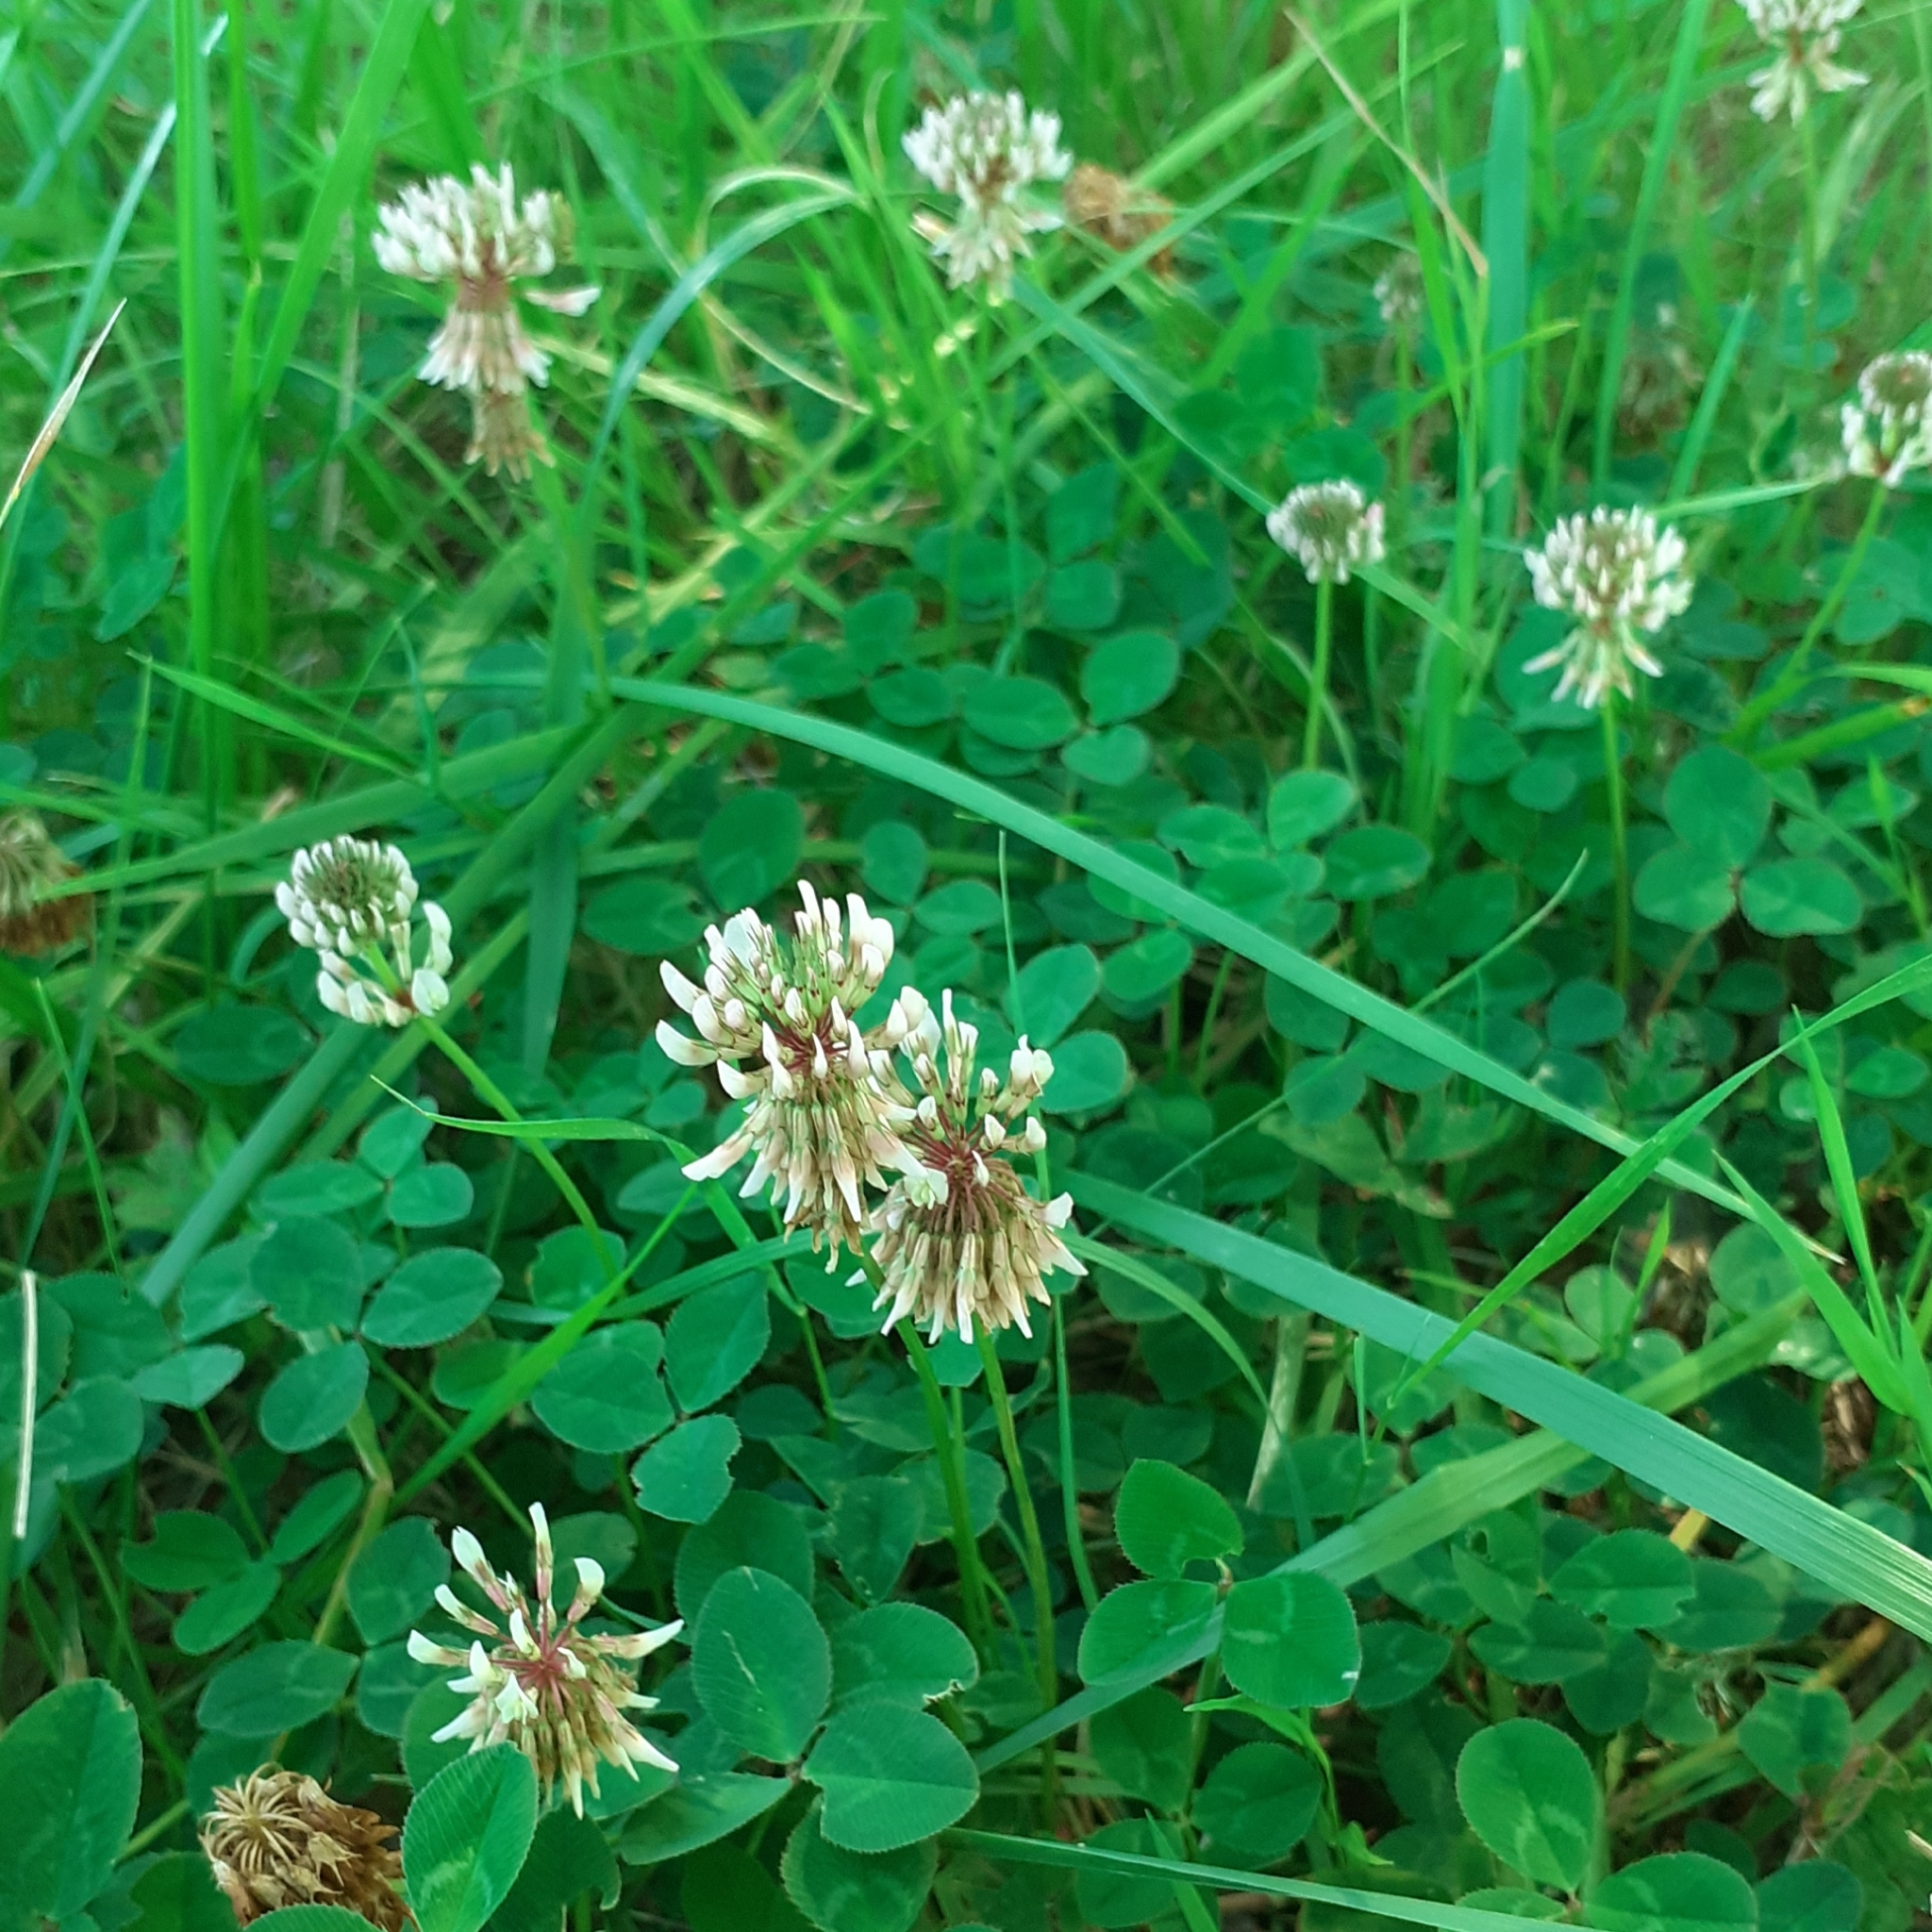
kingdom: Plantae
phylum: Tracheophyta
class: Magnoliopsida
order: Fabales
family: Fabaceae
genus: Trifolium
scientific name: Trifolium repens
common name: White clover
